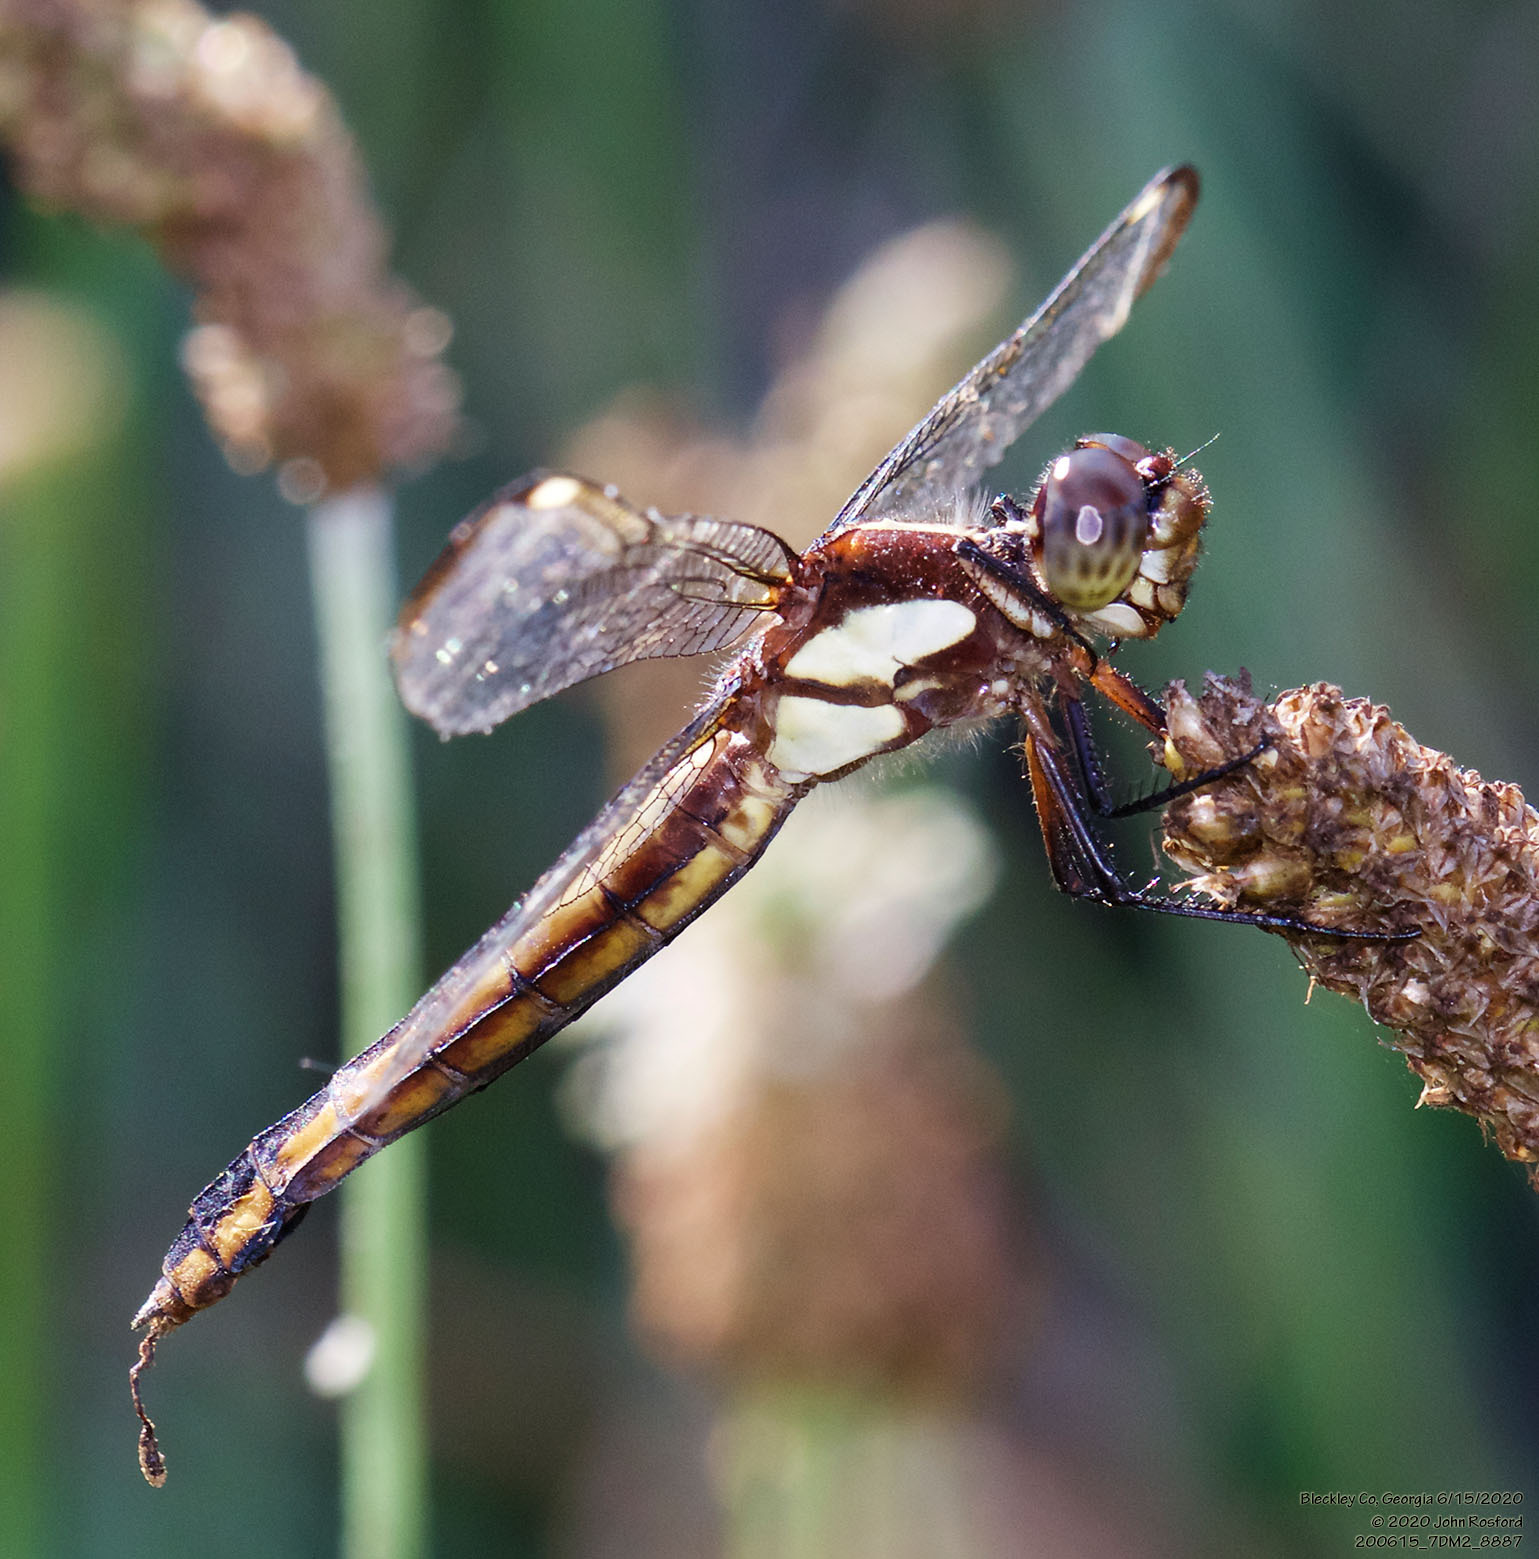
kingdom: Animalia
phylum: Arthropoda
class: Insecta
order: Odonata
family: Libellulidae
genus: Libellula
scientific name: Libellula cyanea
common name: Spangled skimmer
